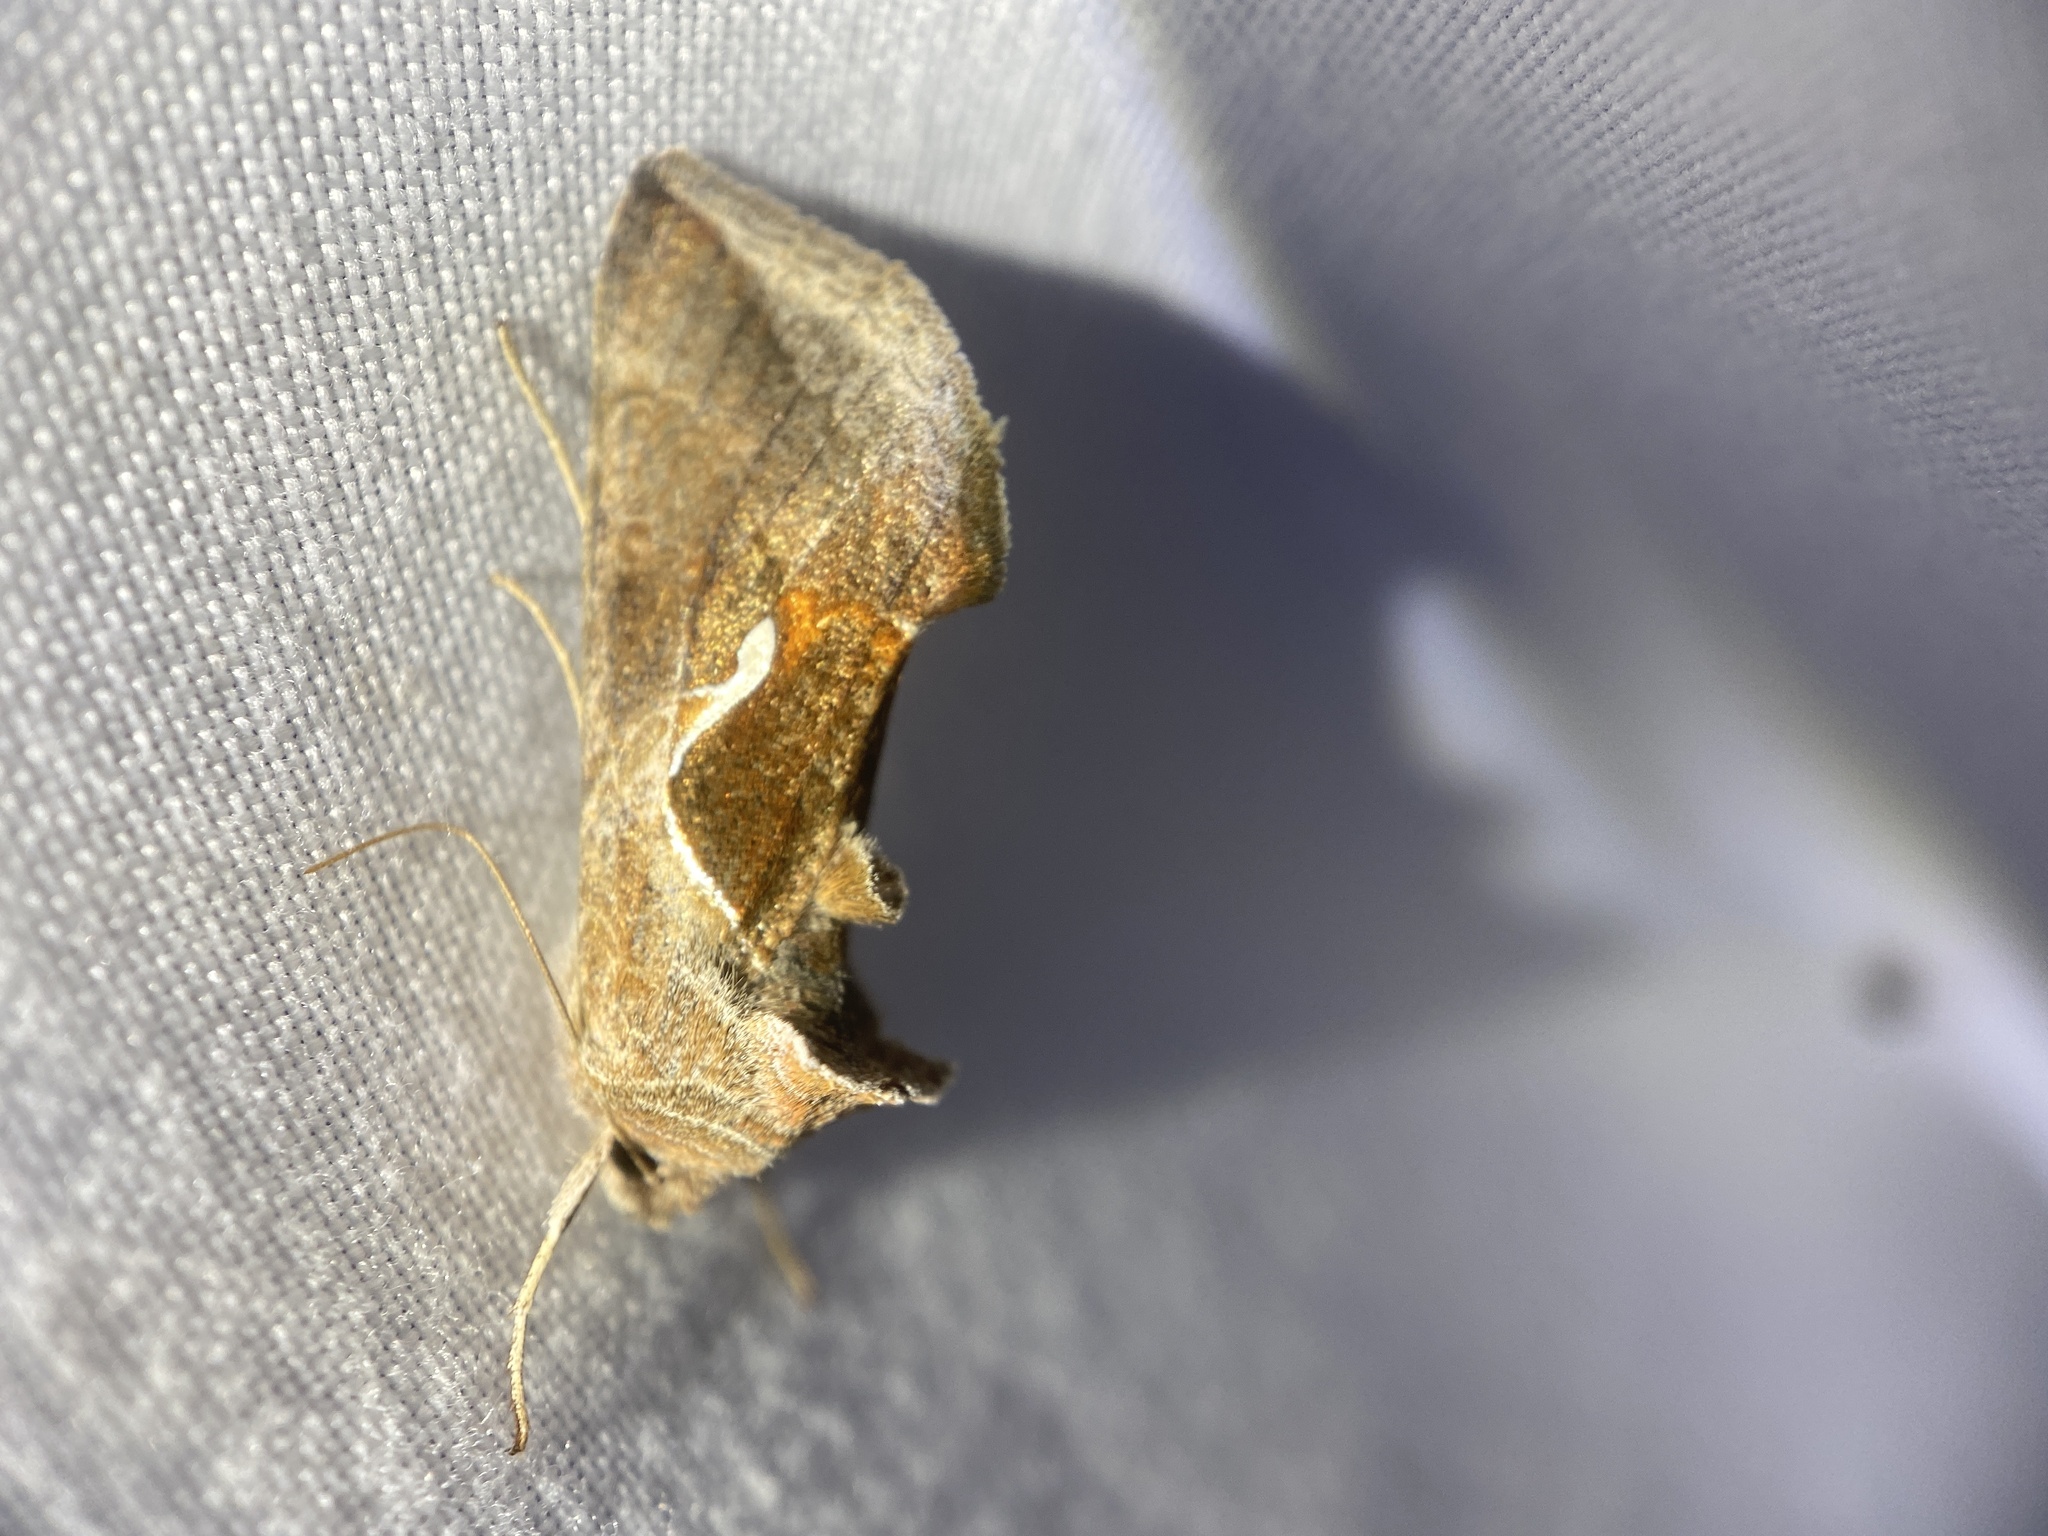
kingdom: Animalia
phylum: Arthropoda
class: Insecta
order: Lepidoptera
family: Noctuidae
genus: Anagrapha
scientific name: Anagrapha falcifera
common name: Celery looper
